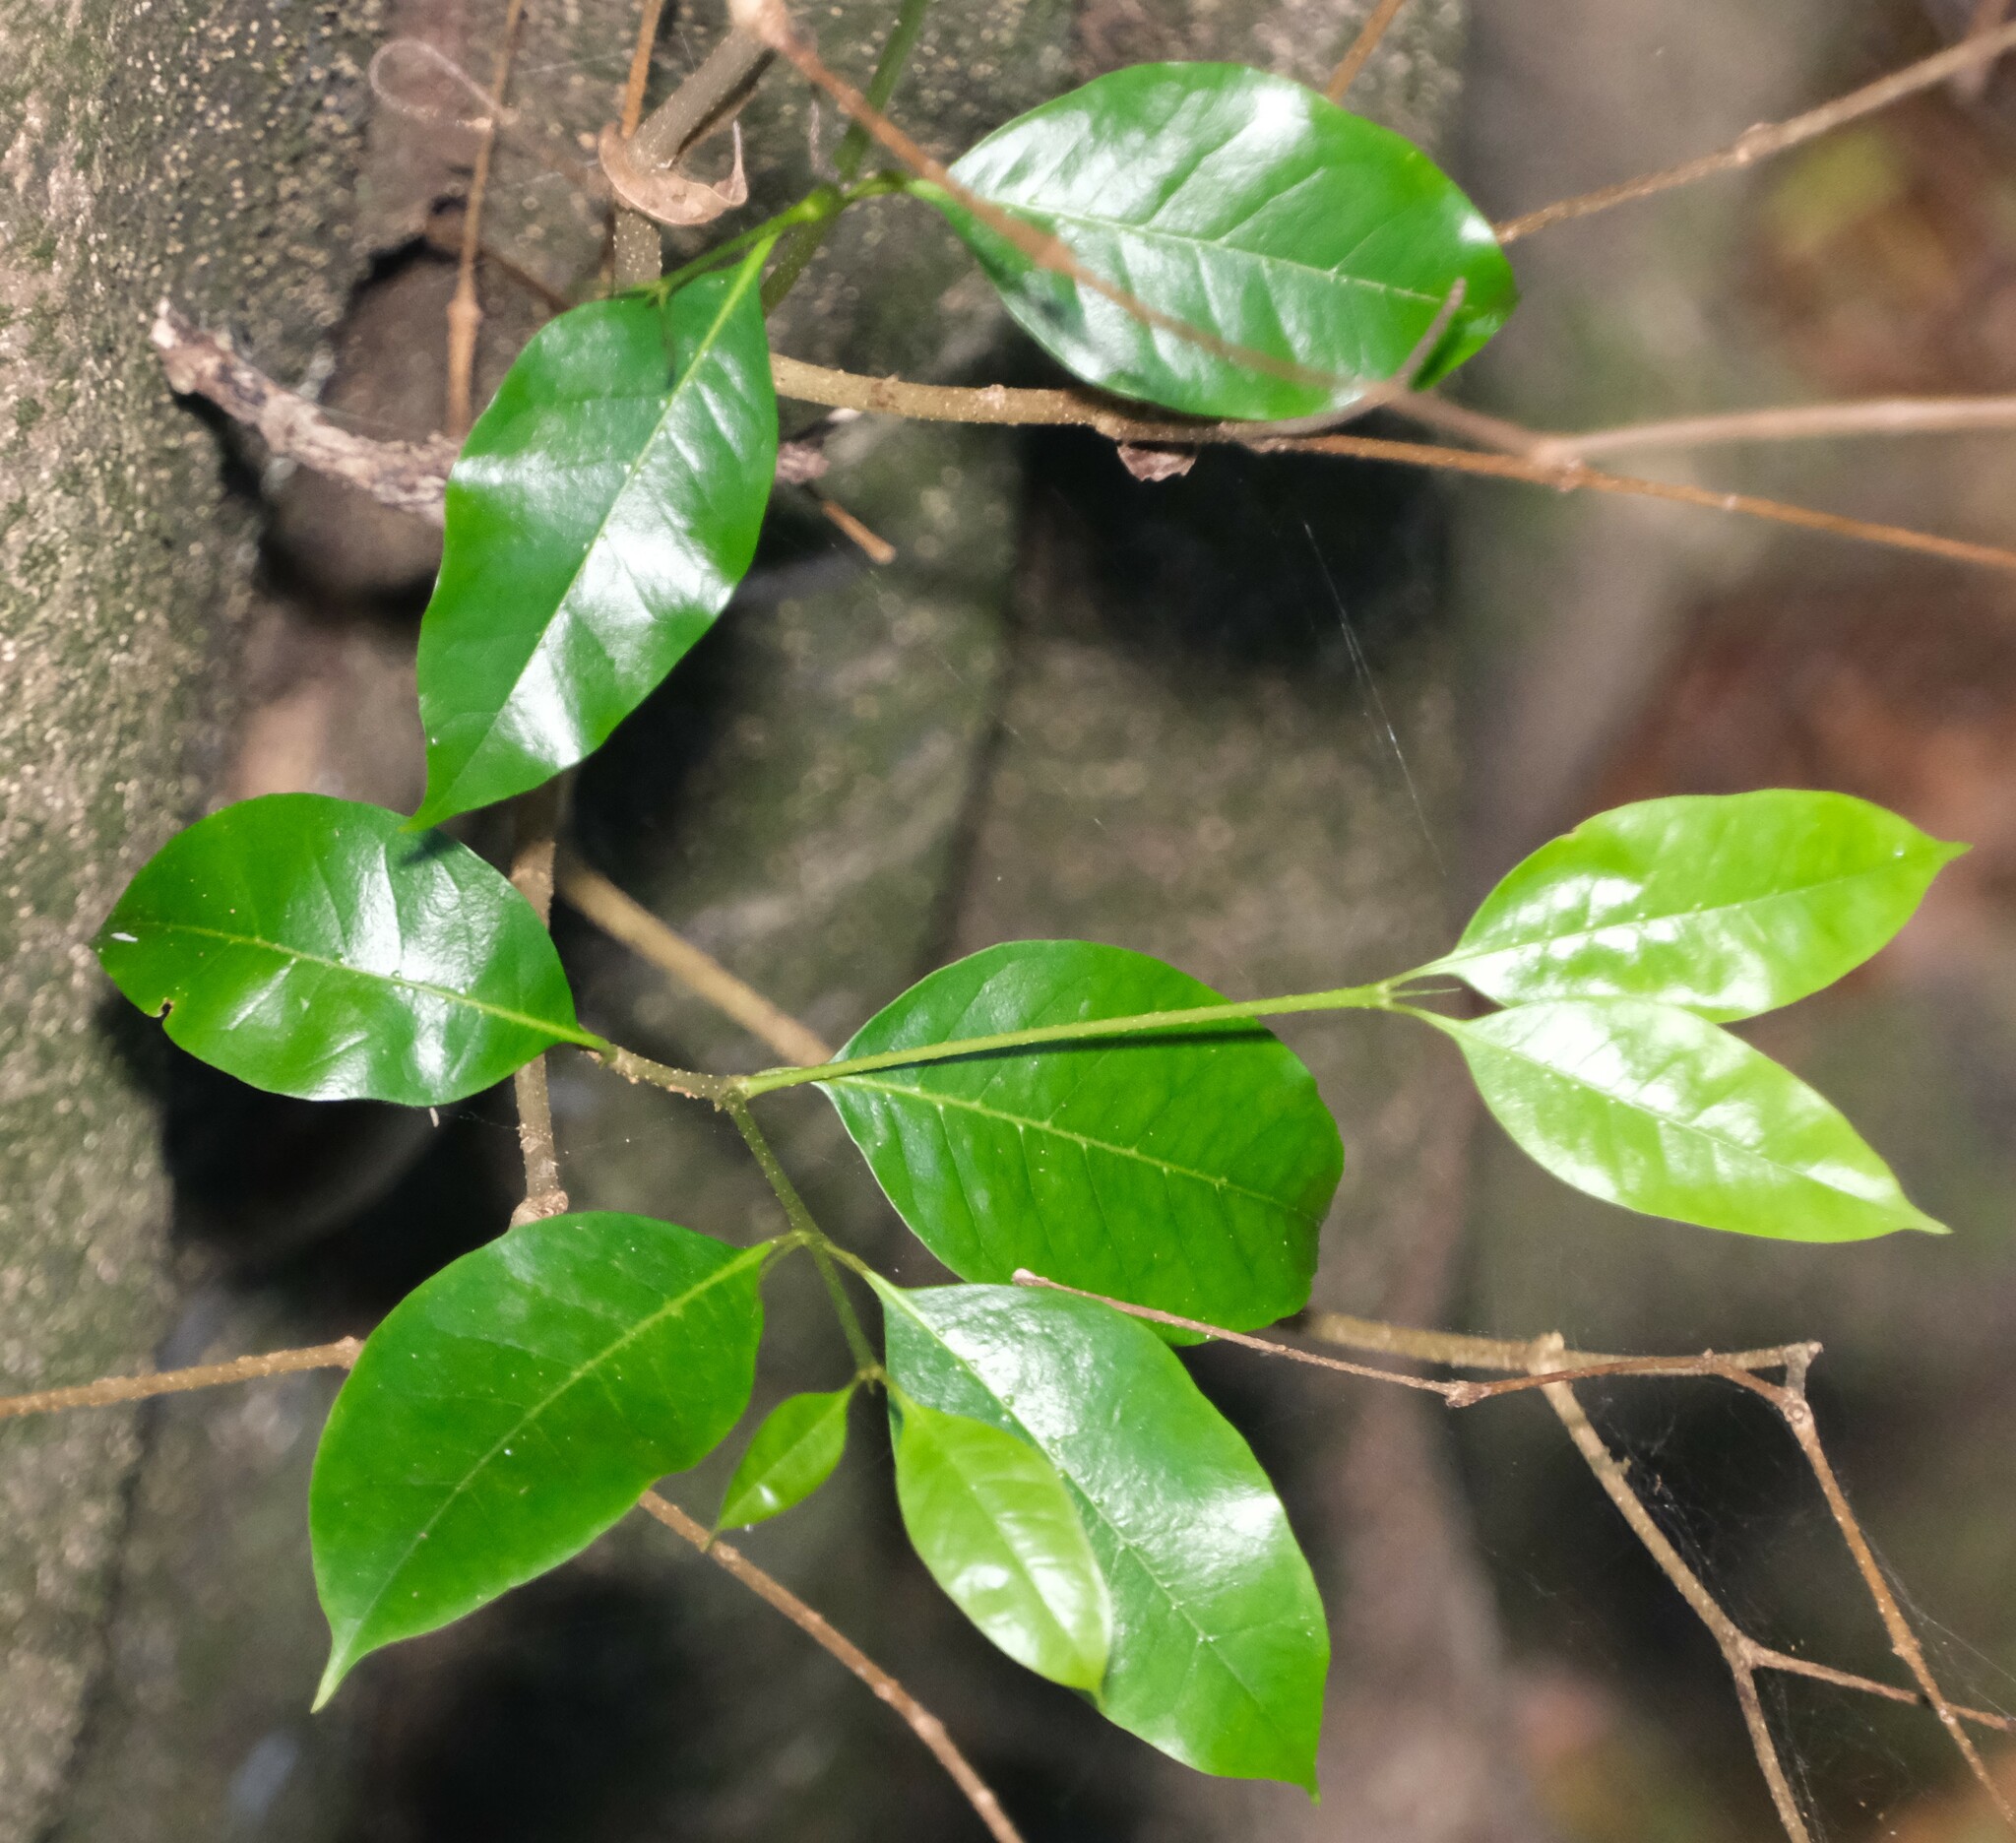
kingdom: Plantae
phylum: Tracheophyta
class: Magnoliopsida
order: Lamiales
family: Oleaceae
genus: Olea
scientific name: Olea paniculata
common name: Australian olive
